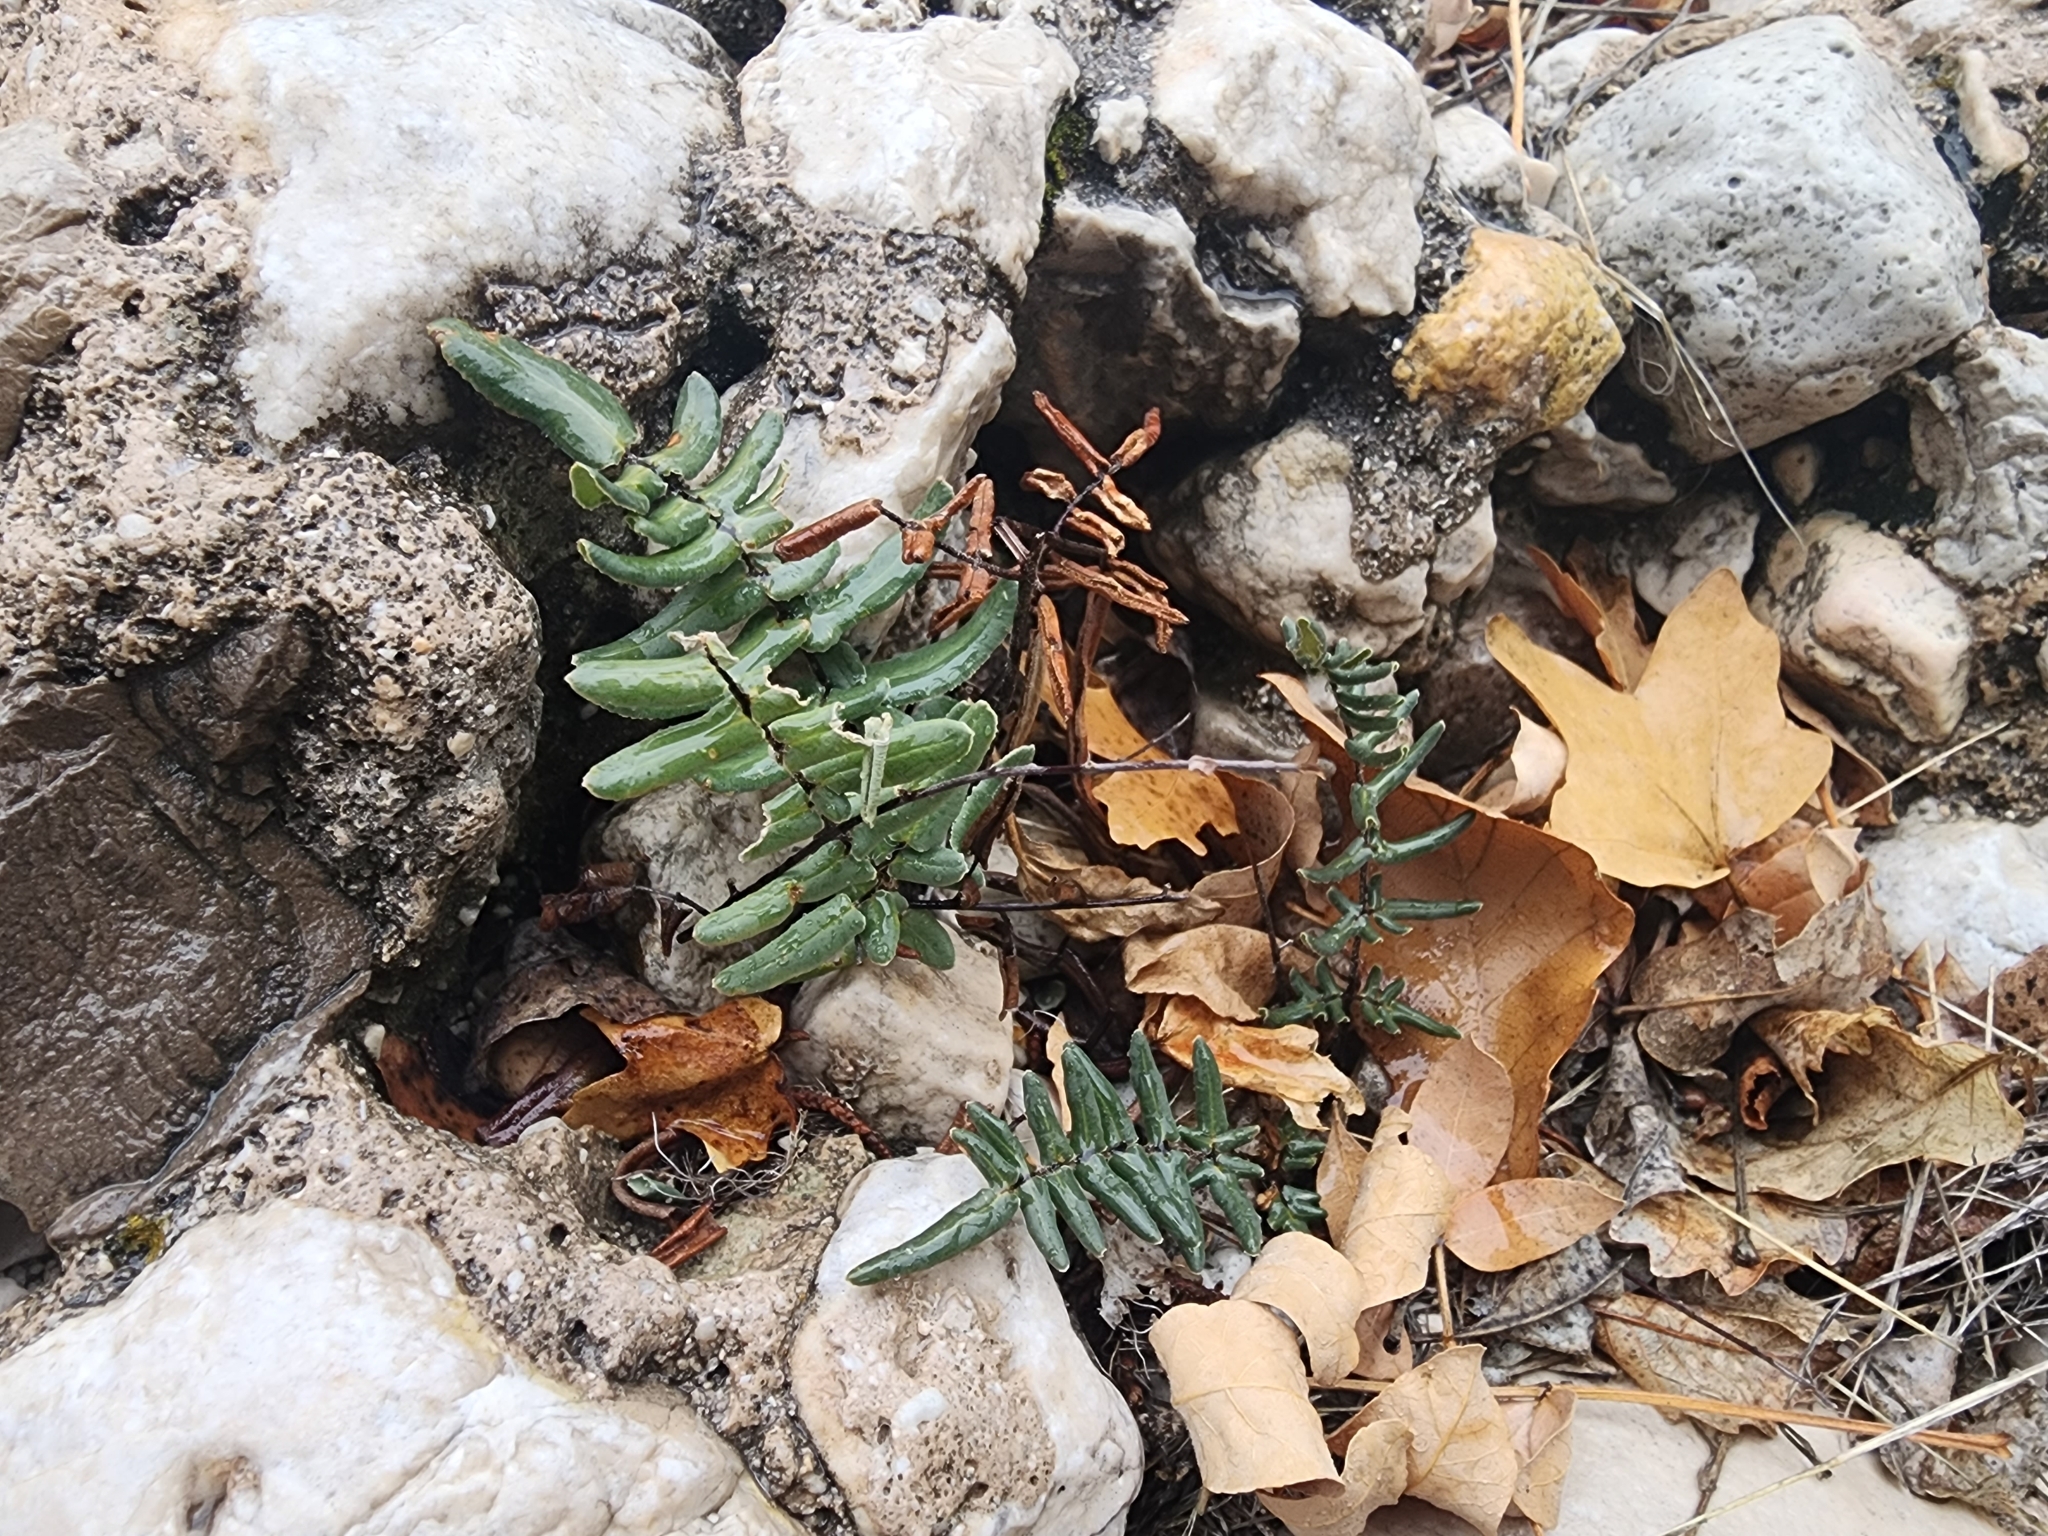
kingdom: Plantae
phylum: Tracheophyta
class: Polypodiopsida
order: Polypodiales
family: Pteridaceae
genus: Pellaea
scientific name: Pellaea atropurpurea
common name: Hairy cliffbrake
